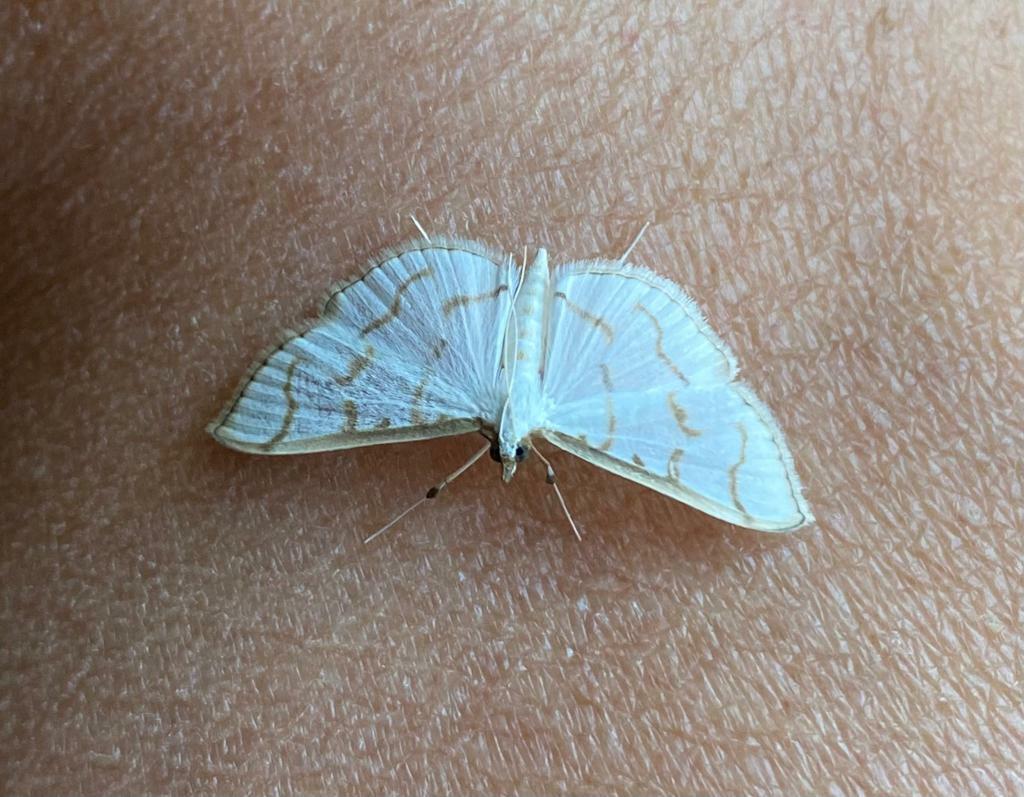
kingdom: Animalia
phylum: Arthropoda
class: Insecta
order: Lepidoptera
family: Crambidae
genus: Antigastra
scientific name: Antigastra morysalis
